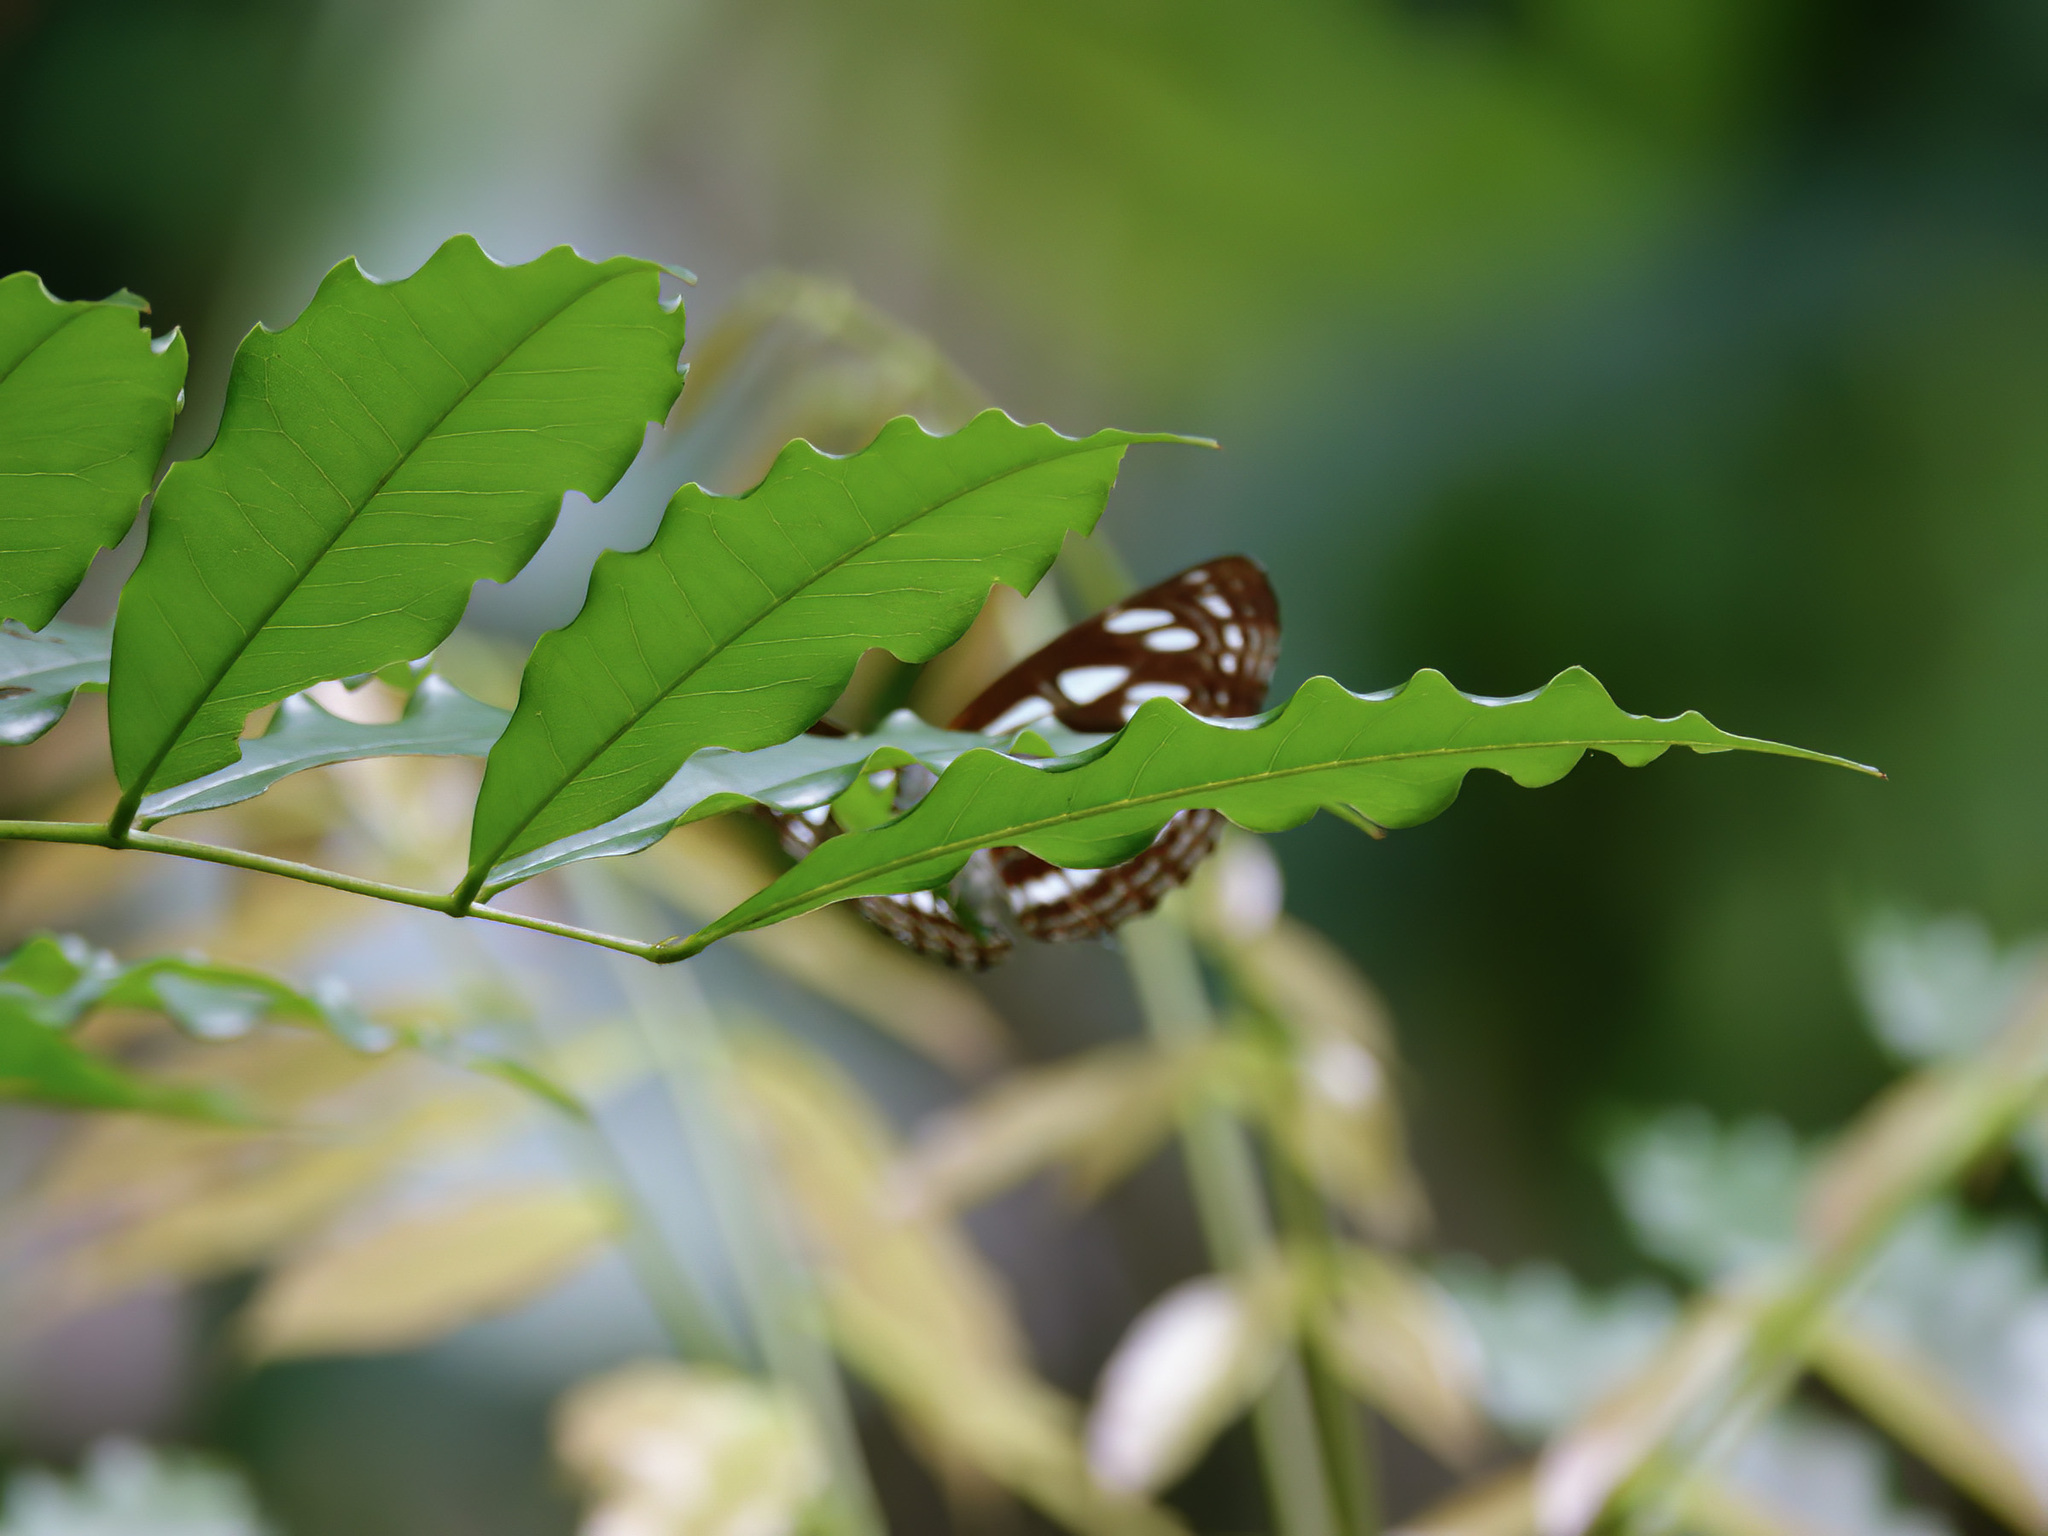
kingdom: Animalia
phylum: Arthropoda
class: Insecta
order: Lepidoptera
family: Nymphalidae
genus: Phaedyma
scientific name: Phaedyma columella
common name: Short banded sailer
